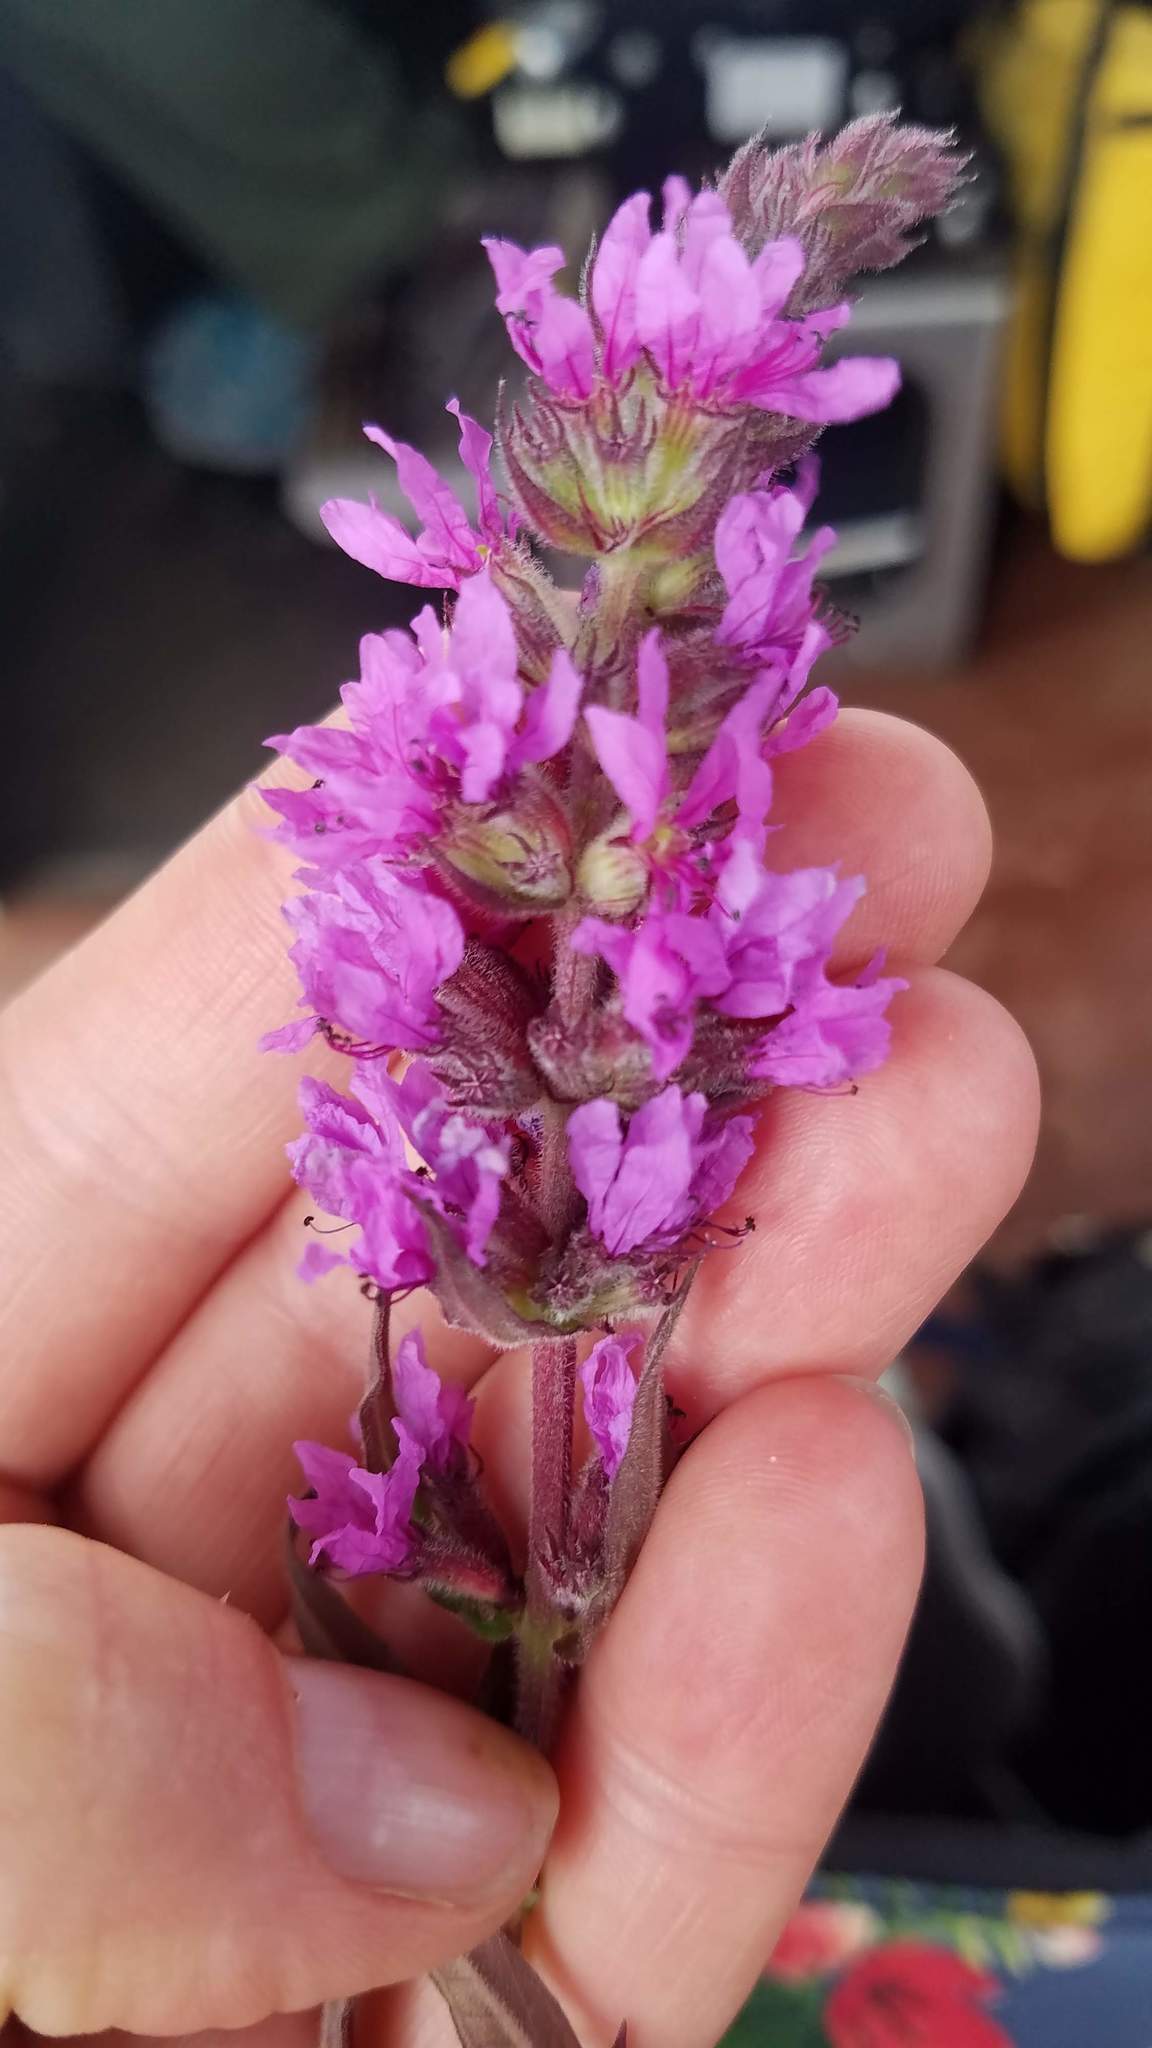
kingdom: Plantae
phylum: Tracheophyta
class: Magnoliopsida
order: Myrtales
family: Lythraceae
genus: Lythrum
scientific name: Lythrum salicaria
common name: Purple loosestrife
